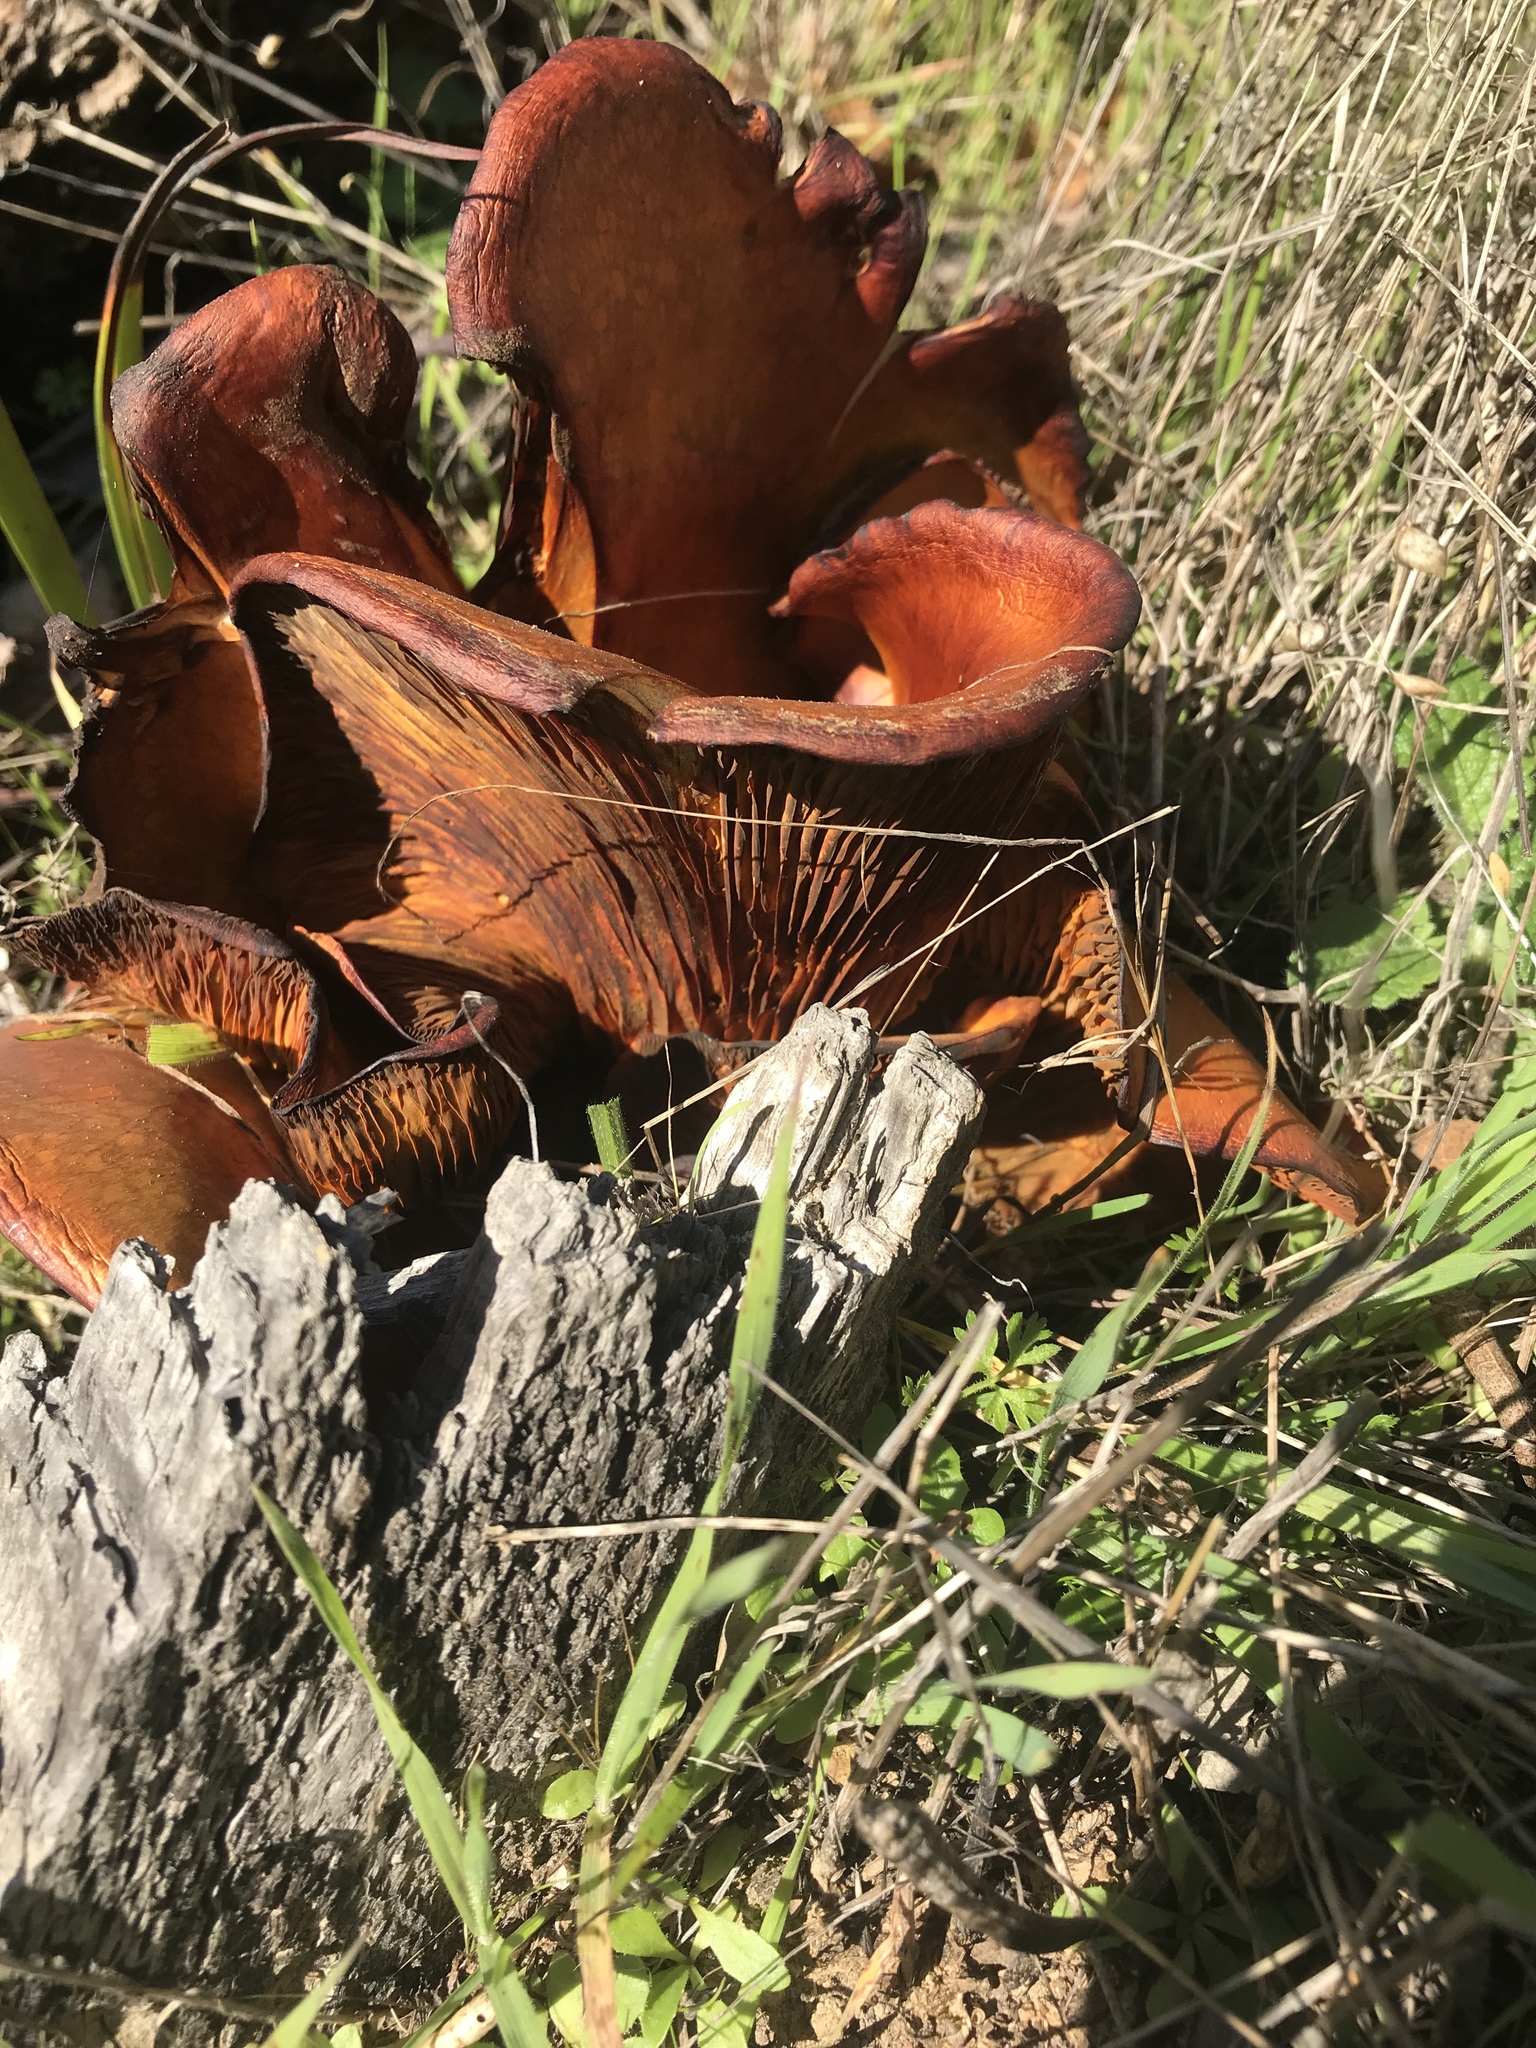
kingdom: Fungi
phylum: Basidiomycota
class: Agaricomycetes
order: Agaricales
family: Omphalotaceae
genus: Omphalotus
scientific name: Omphalotus olivascens
